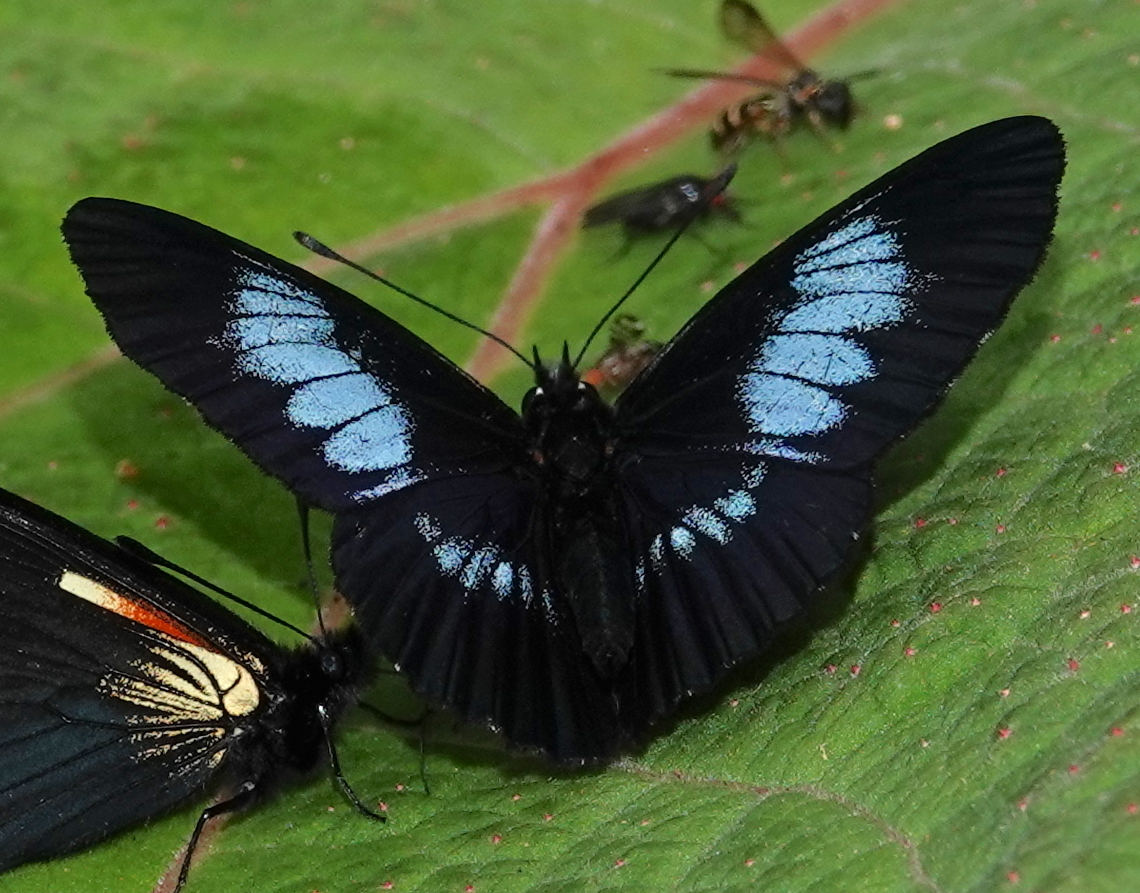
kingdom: Animalia
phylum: Arthropoda
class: Insecta
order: Lepidoptera
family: Nymphalidae
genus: Eresia
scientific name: Eresia levina
